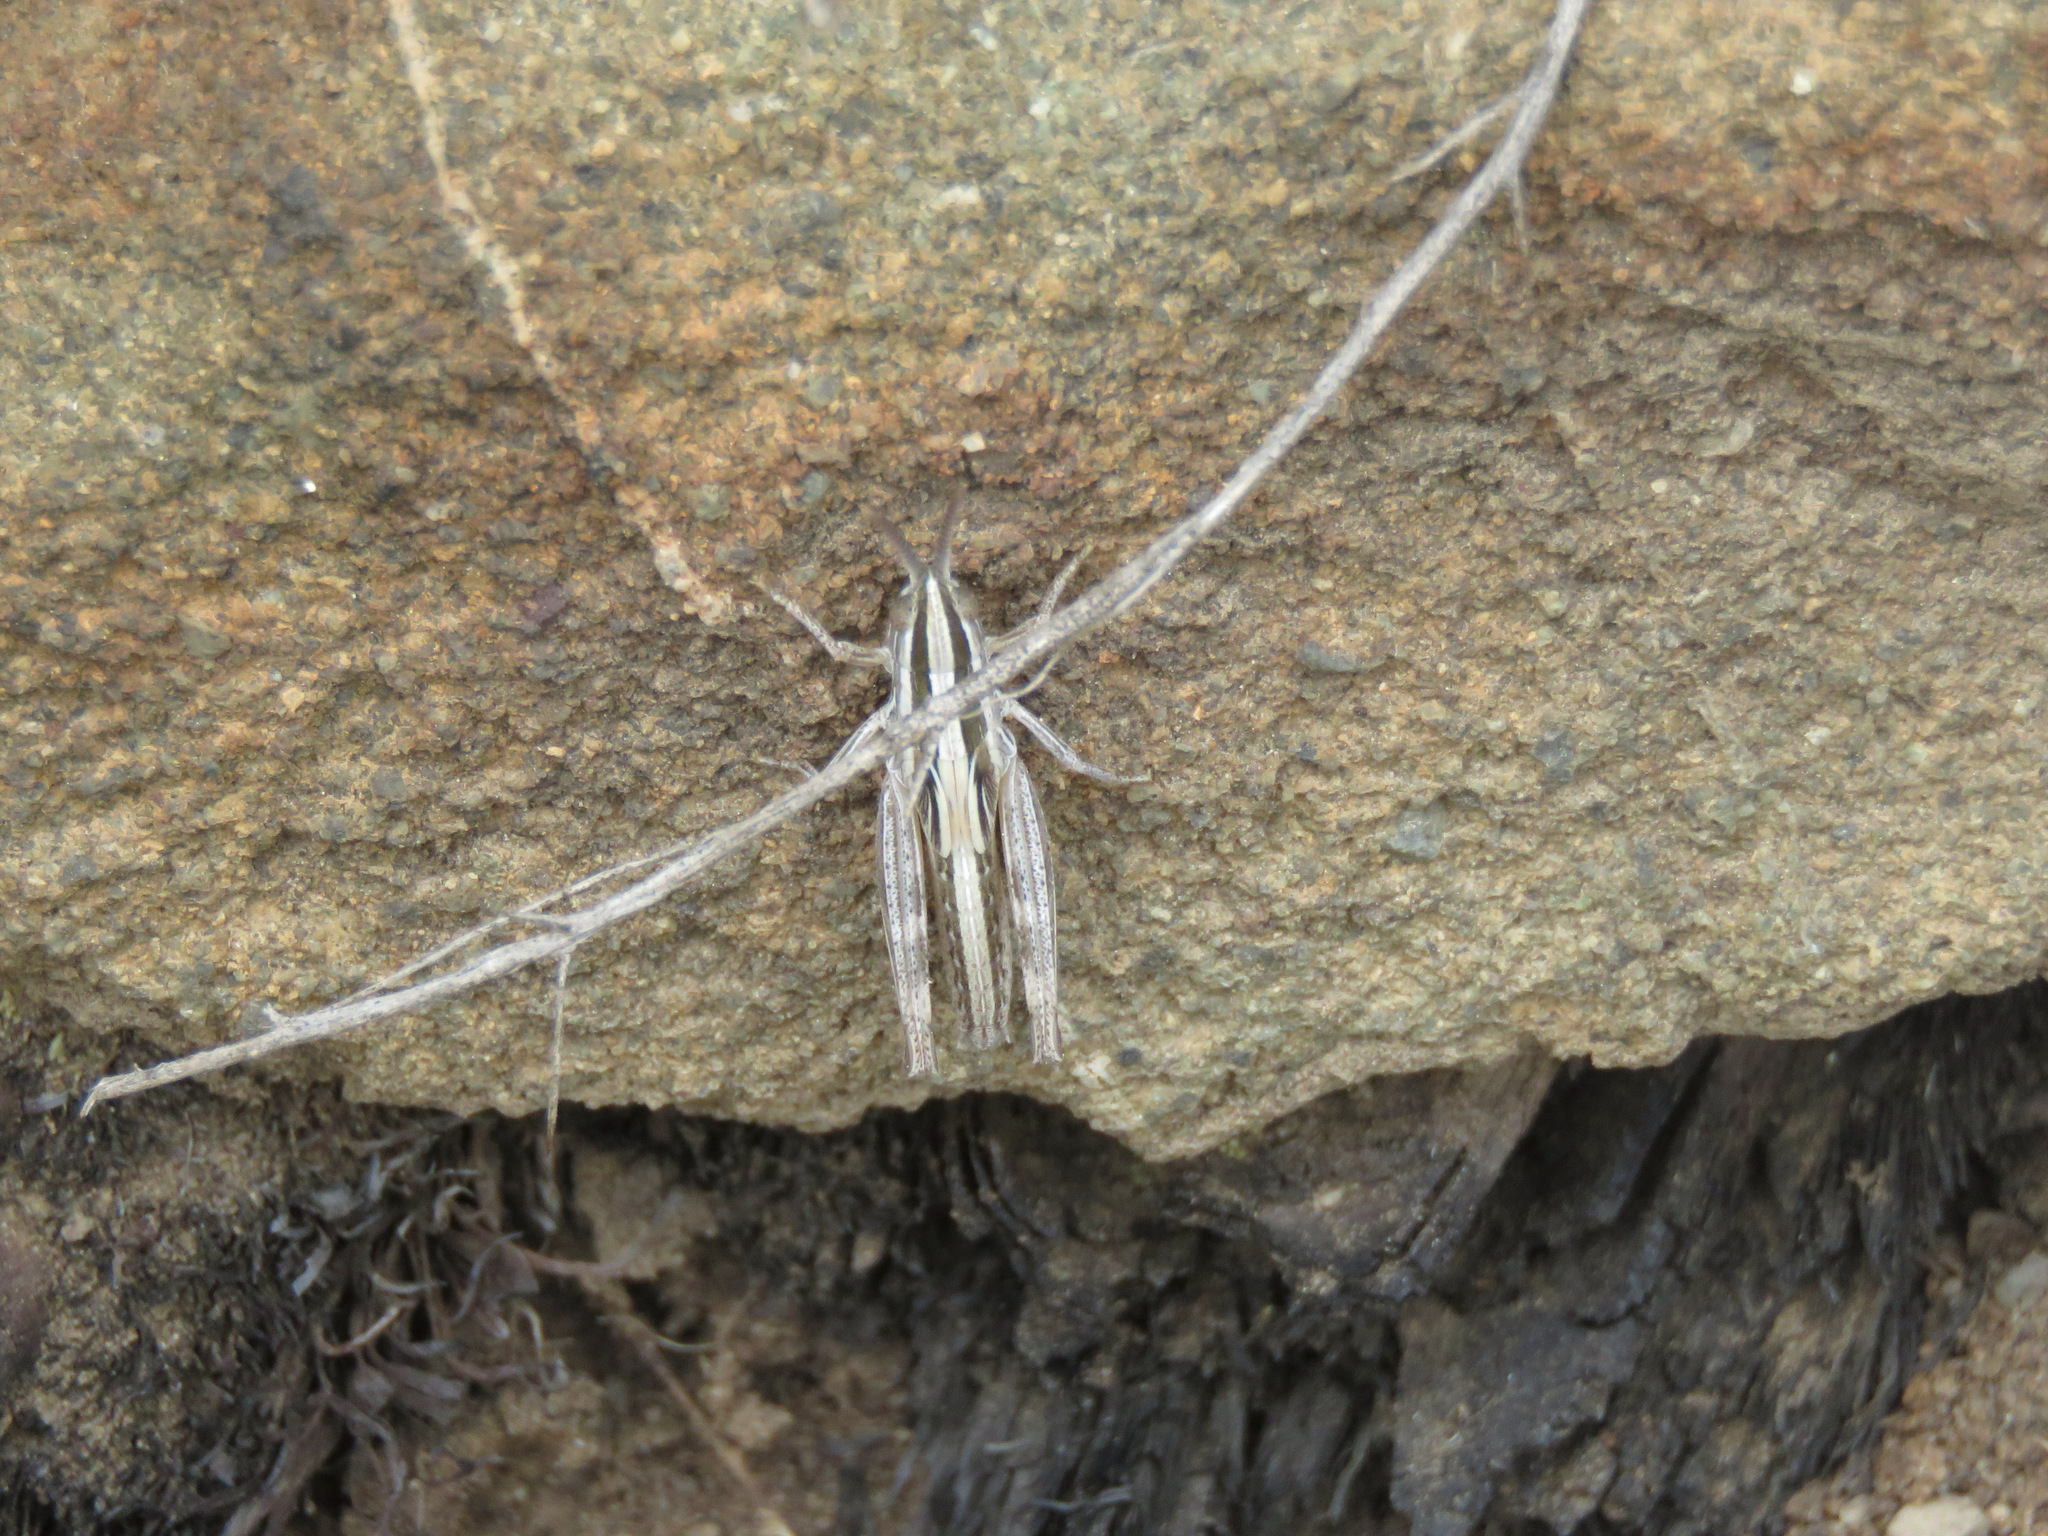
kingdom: Animalia
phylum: Arthropoda
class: Insecta
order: Orthoptera
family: Acrididae
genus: Amphitornus
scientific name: Amphitornus coloradus
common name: Striped grasshopper
